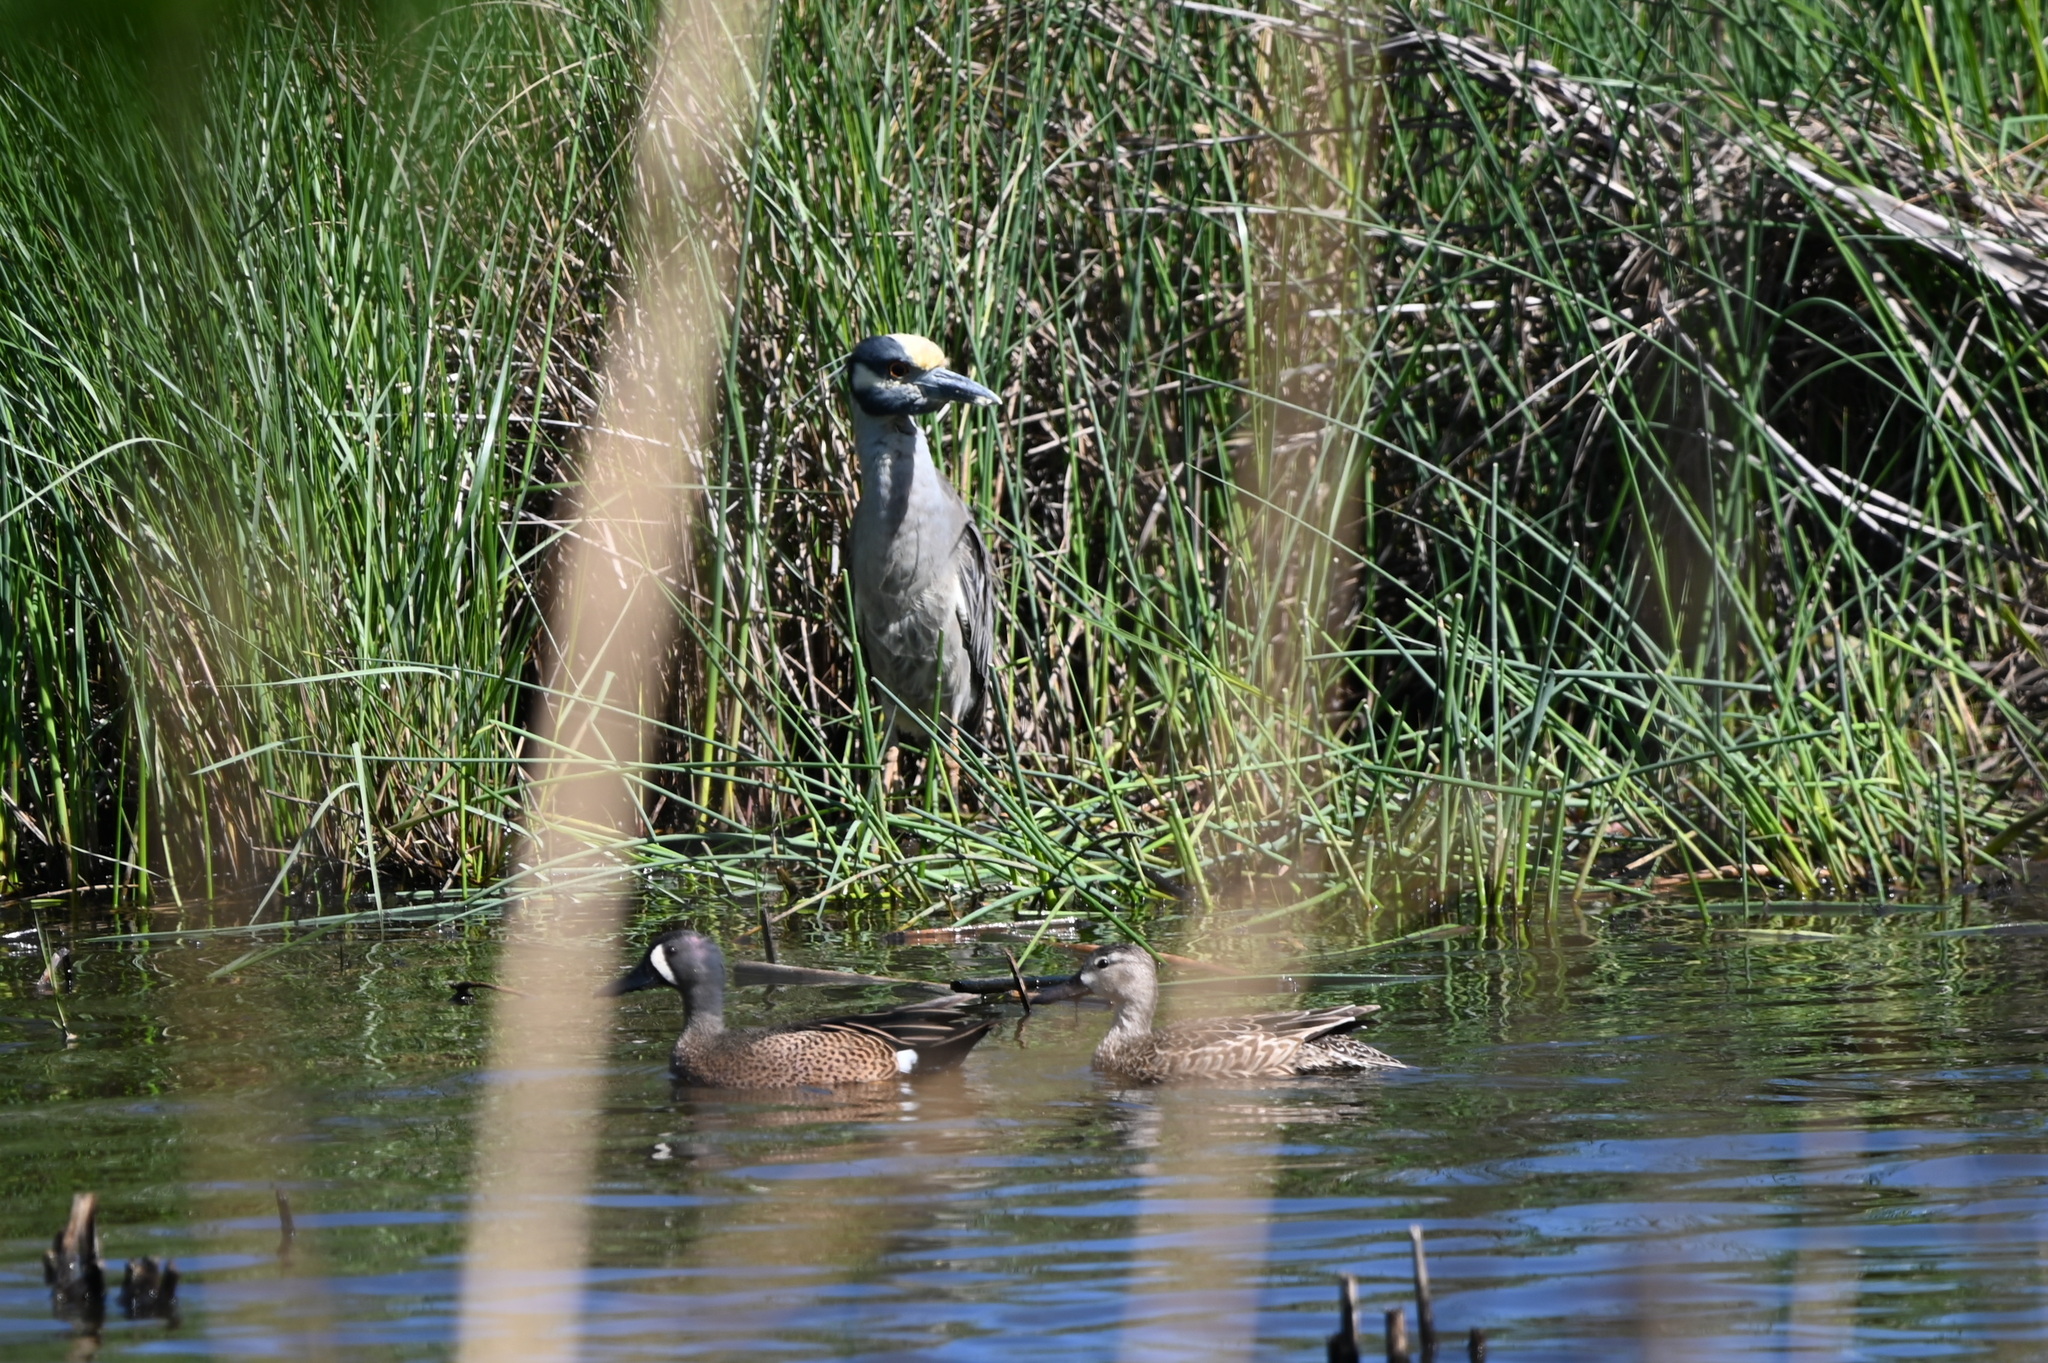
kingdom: Animalia
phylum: Chordata
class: Aves
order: Pelecaniformes
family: Ardeidae
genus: Nyctanassa
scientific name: Nyctanassa violacea
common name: Yellow-crowned night heron
